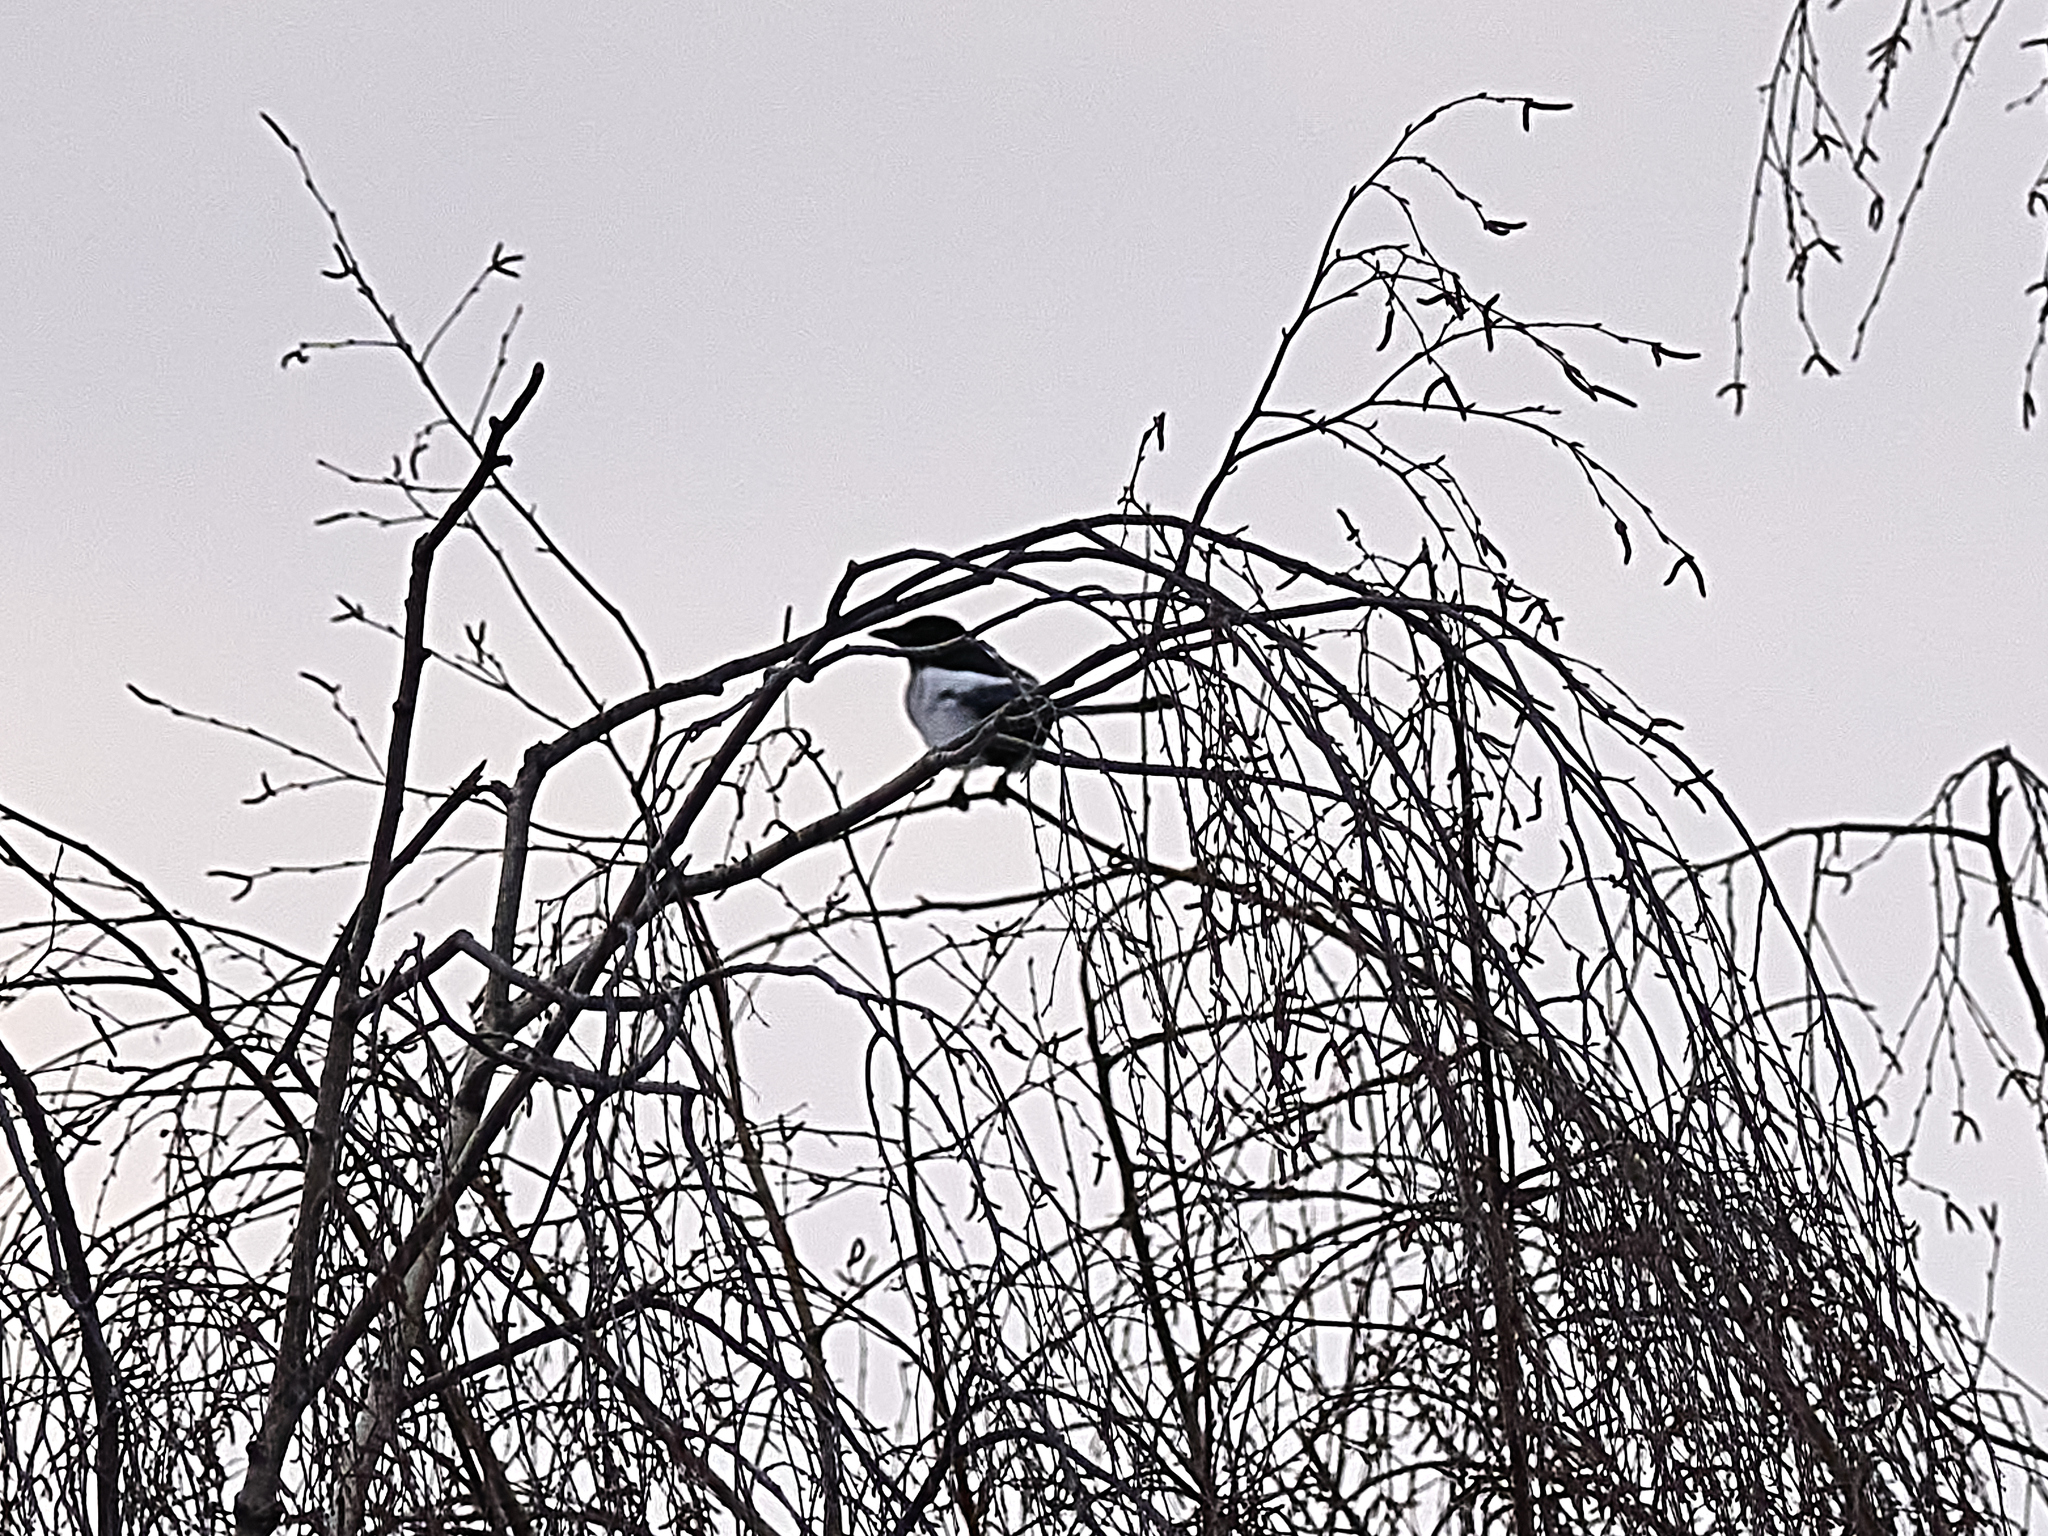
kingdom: Animalia
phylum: Chordata
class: Aves
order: Passeriformes
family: Corvidae
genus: Pica
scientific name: Pica pica
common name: Eurasian magpie
